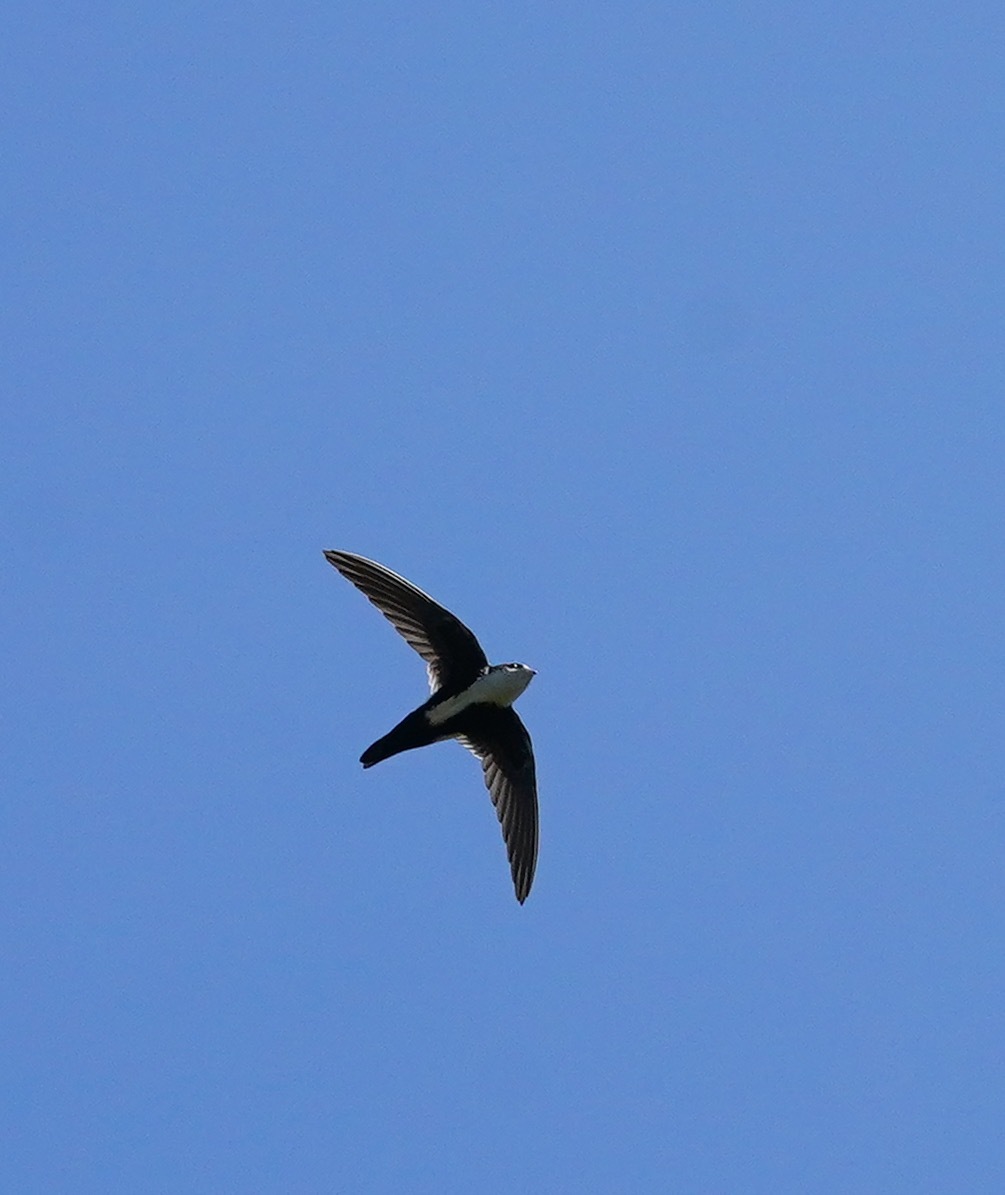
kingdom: Animalia
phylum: Chordata
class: Aves
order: Apodiformes
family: Apodidae
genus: Aeronautes
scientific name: Aeronautes saxatalis
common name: White-throated swift
